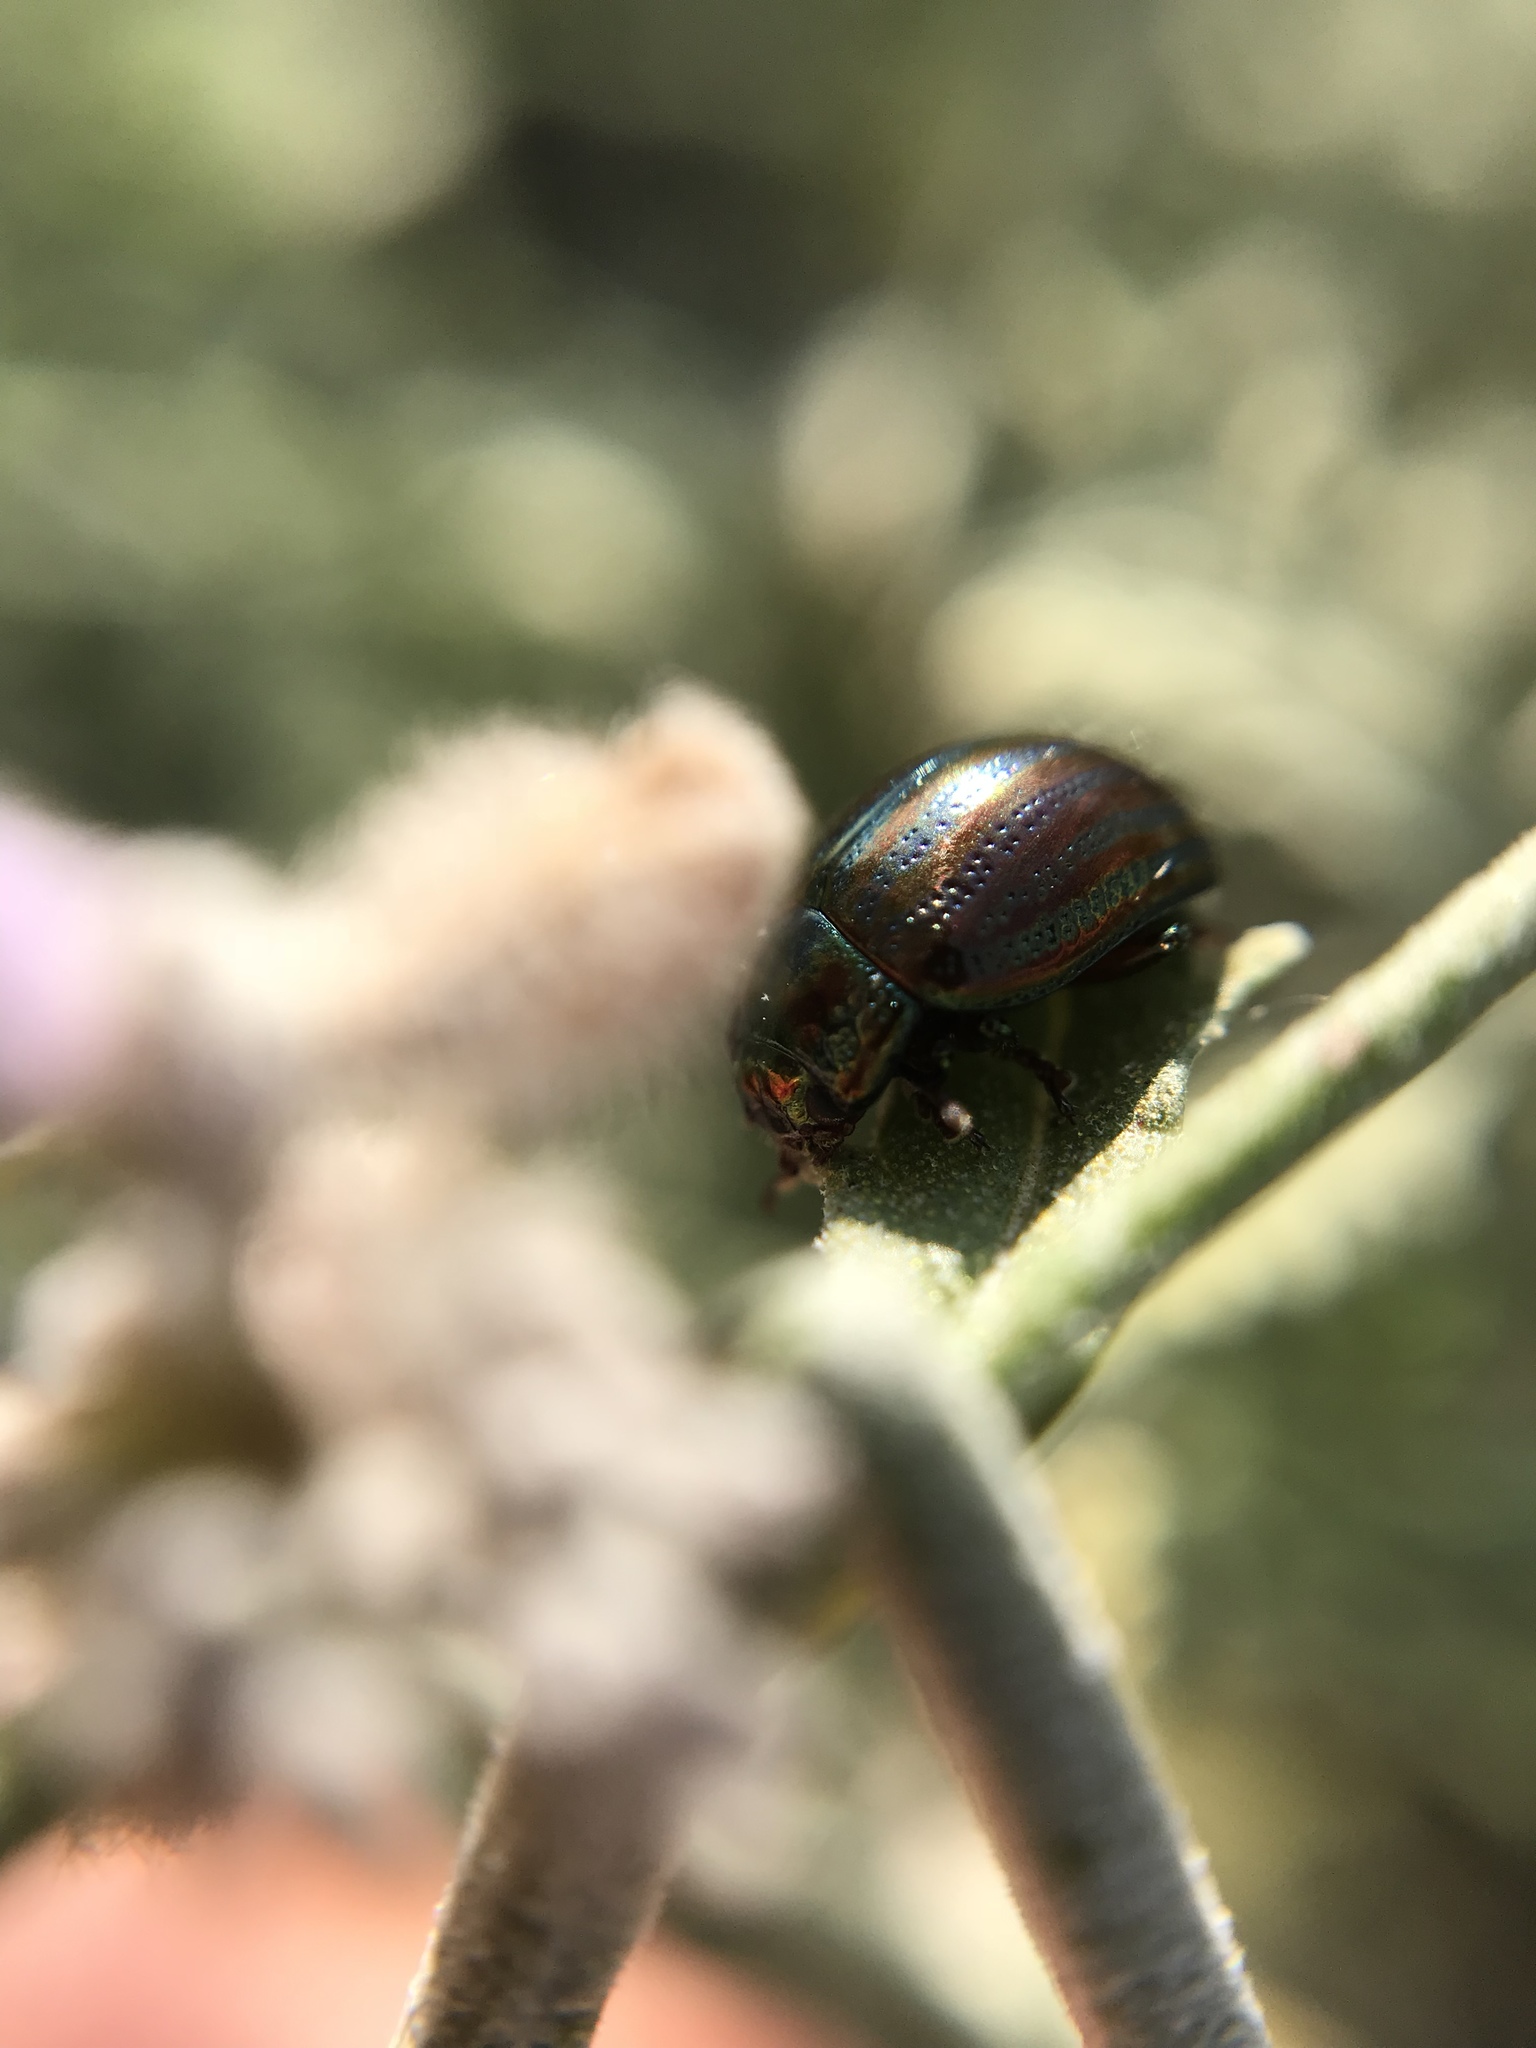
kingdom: Animalia
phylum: Arthropoda
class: Insecta
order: Coleoptera
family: Chrysomelidae
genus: Chrysolina
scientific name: Chrysolina americana
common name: Rosemary beetle
